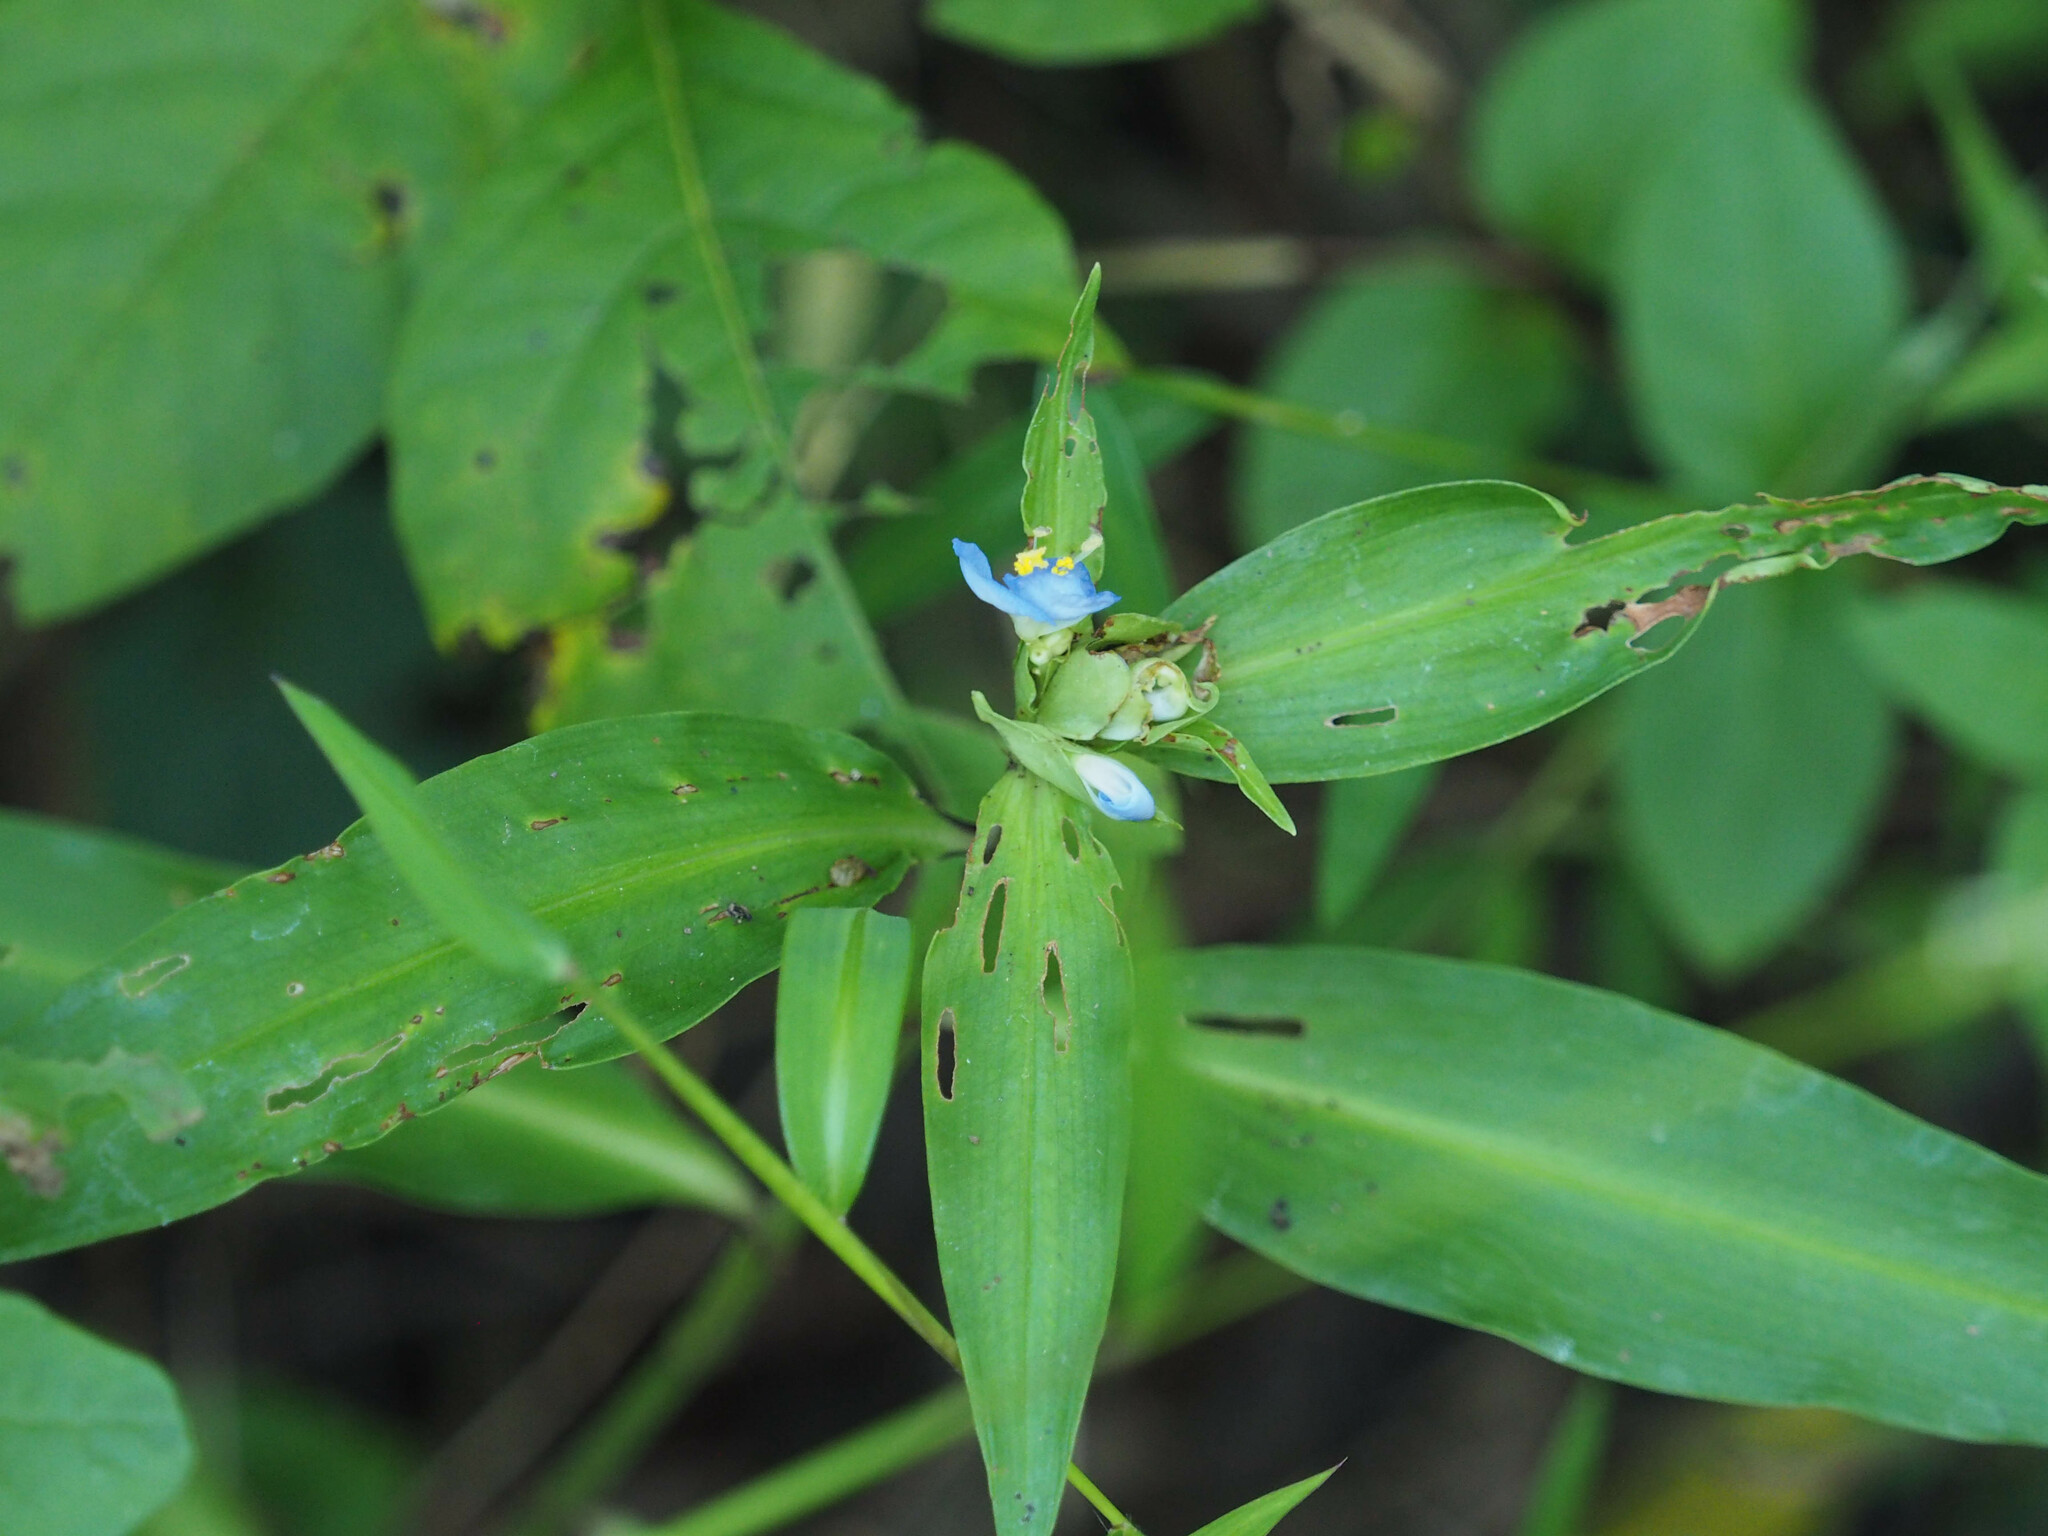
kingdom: Plantae
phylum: Tracheophyta
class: Liliopsida
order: Commelinales
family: Commelinaceae
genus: Commelina
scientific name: Commelina virginica
